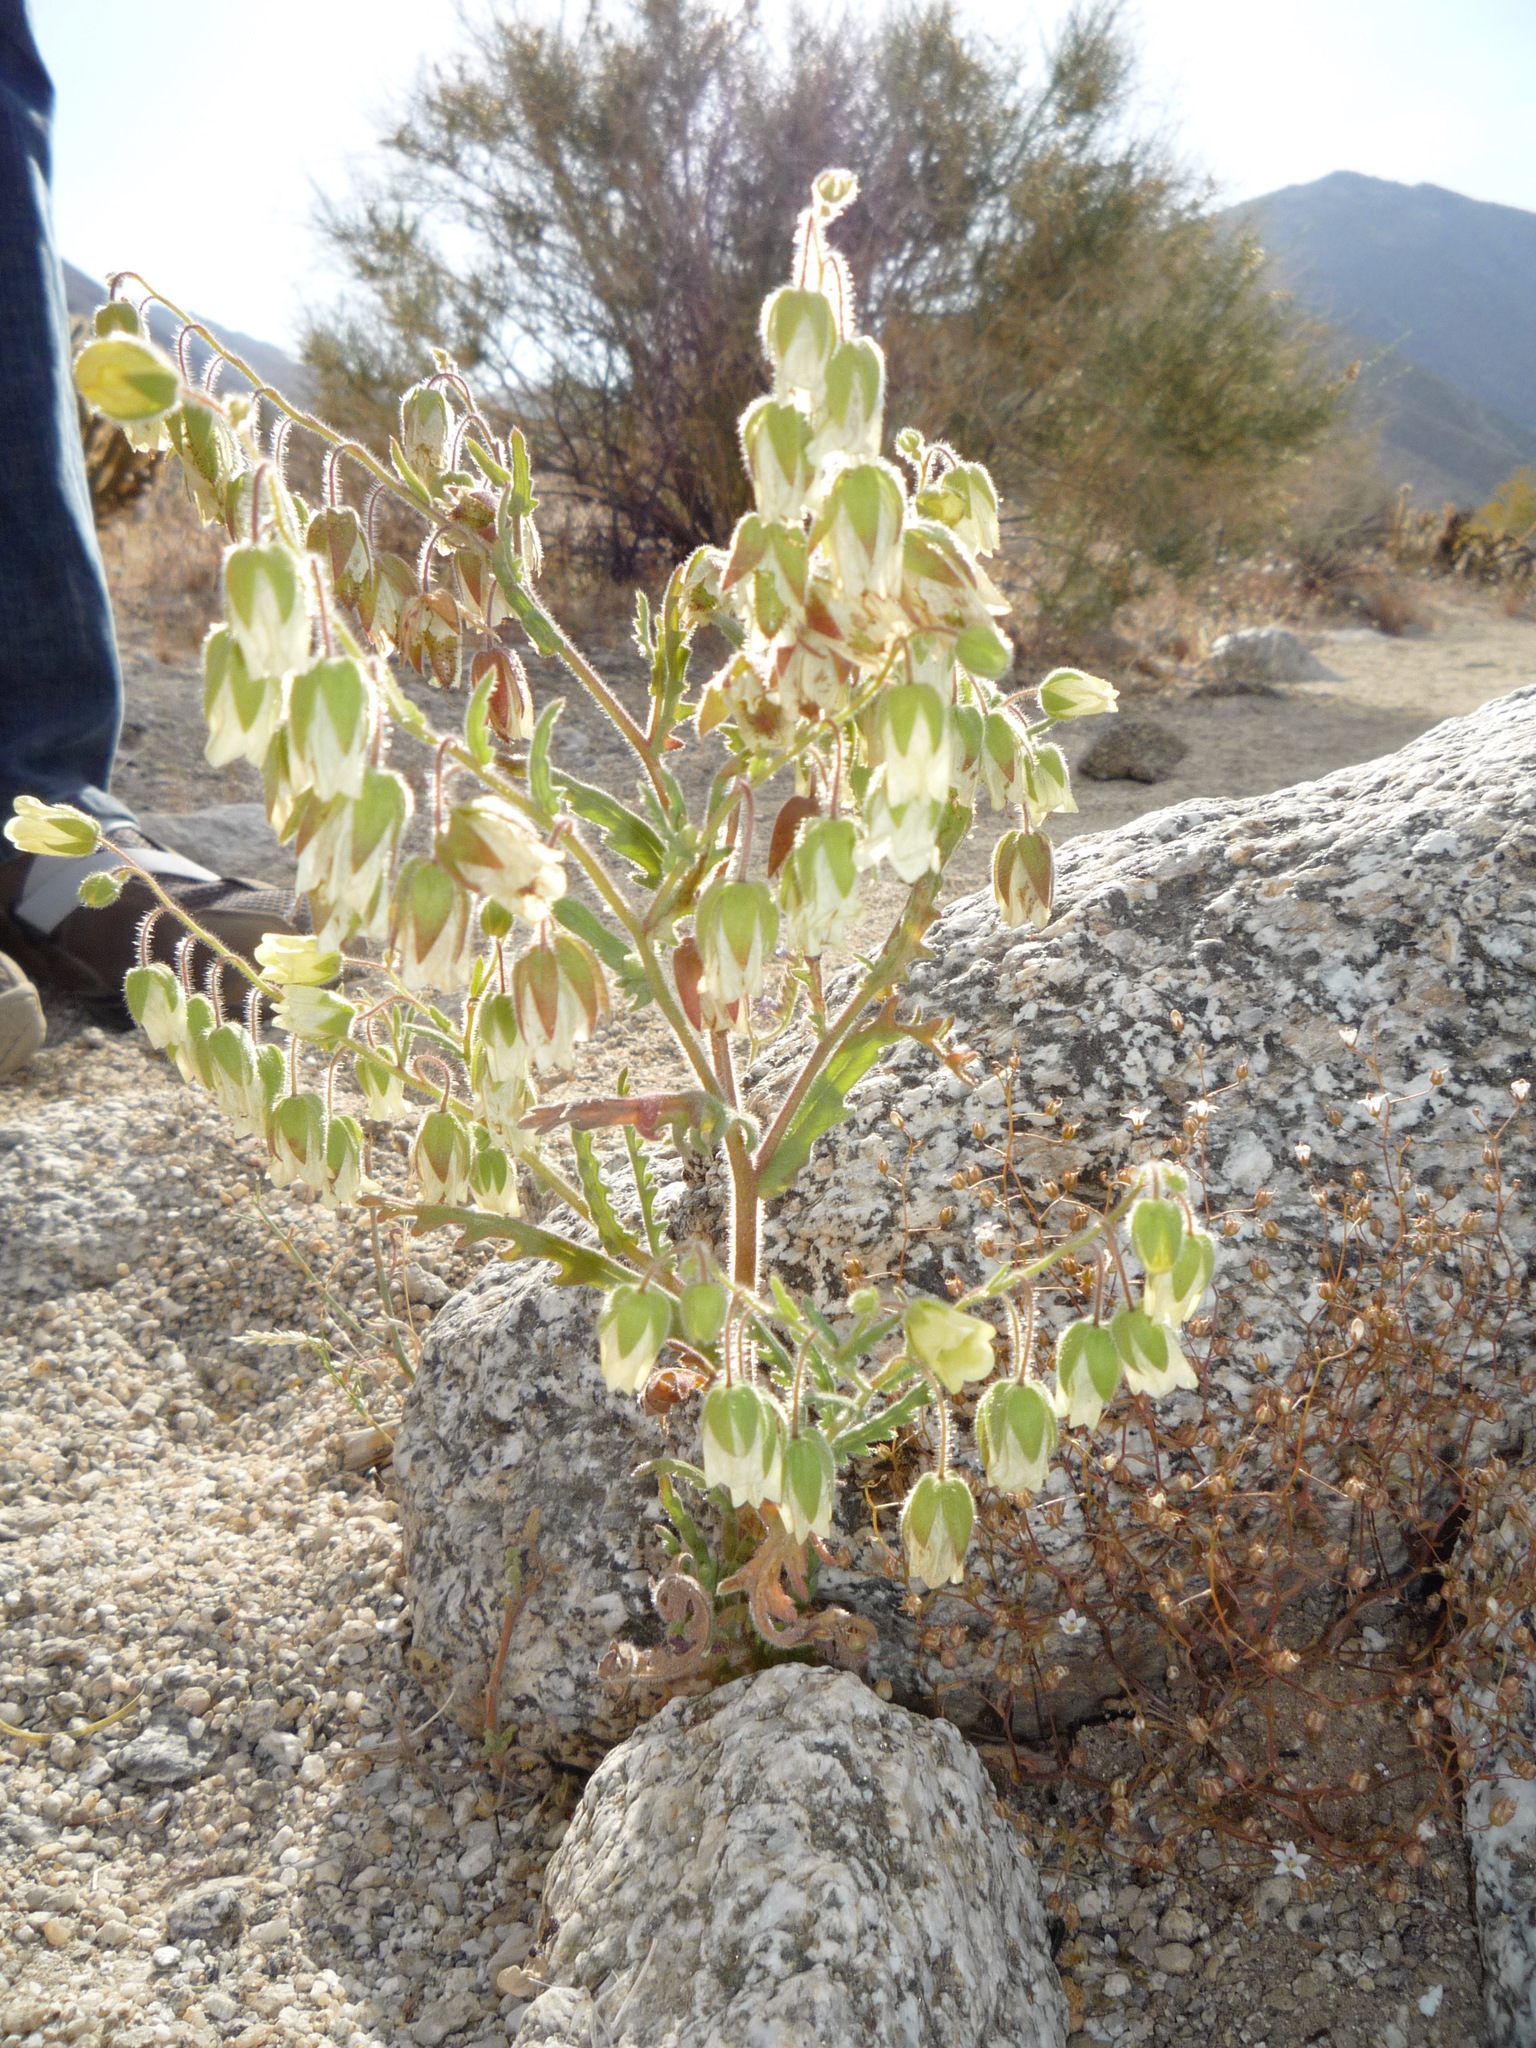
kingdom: Plantae
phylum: Tracheophyta
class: Magnoliopsida
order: Boraginales
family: Hydrophyllaceae
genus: Emmenanthe
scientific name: Emmenanthe penduliflora
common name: Whispering-bells
